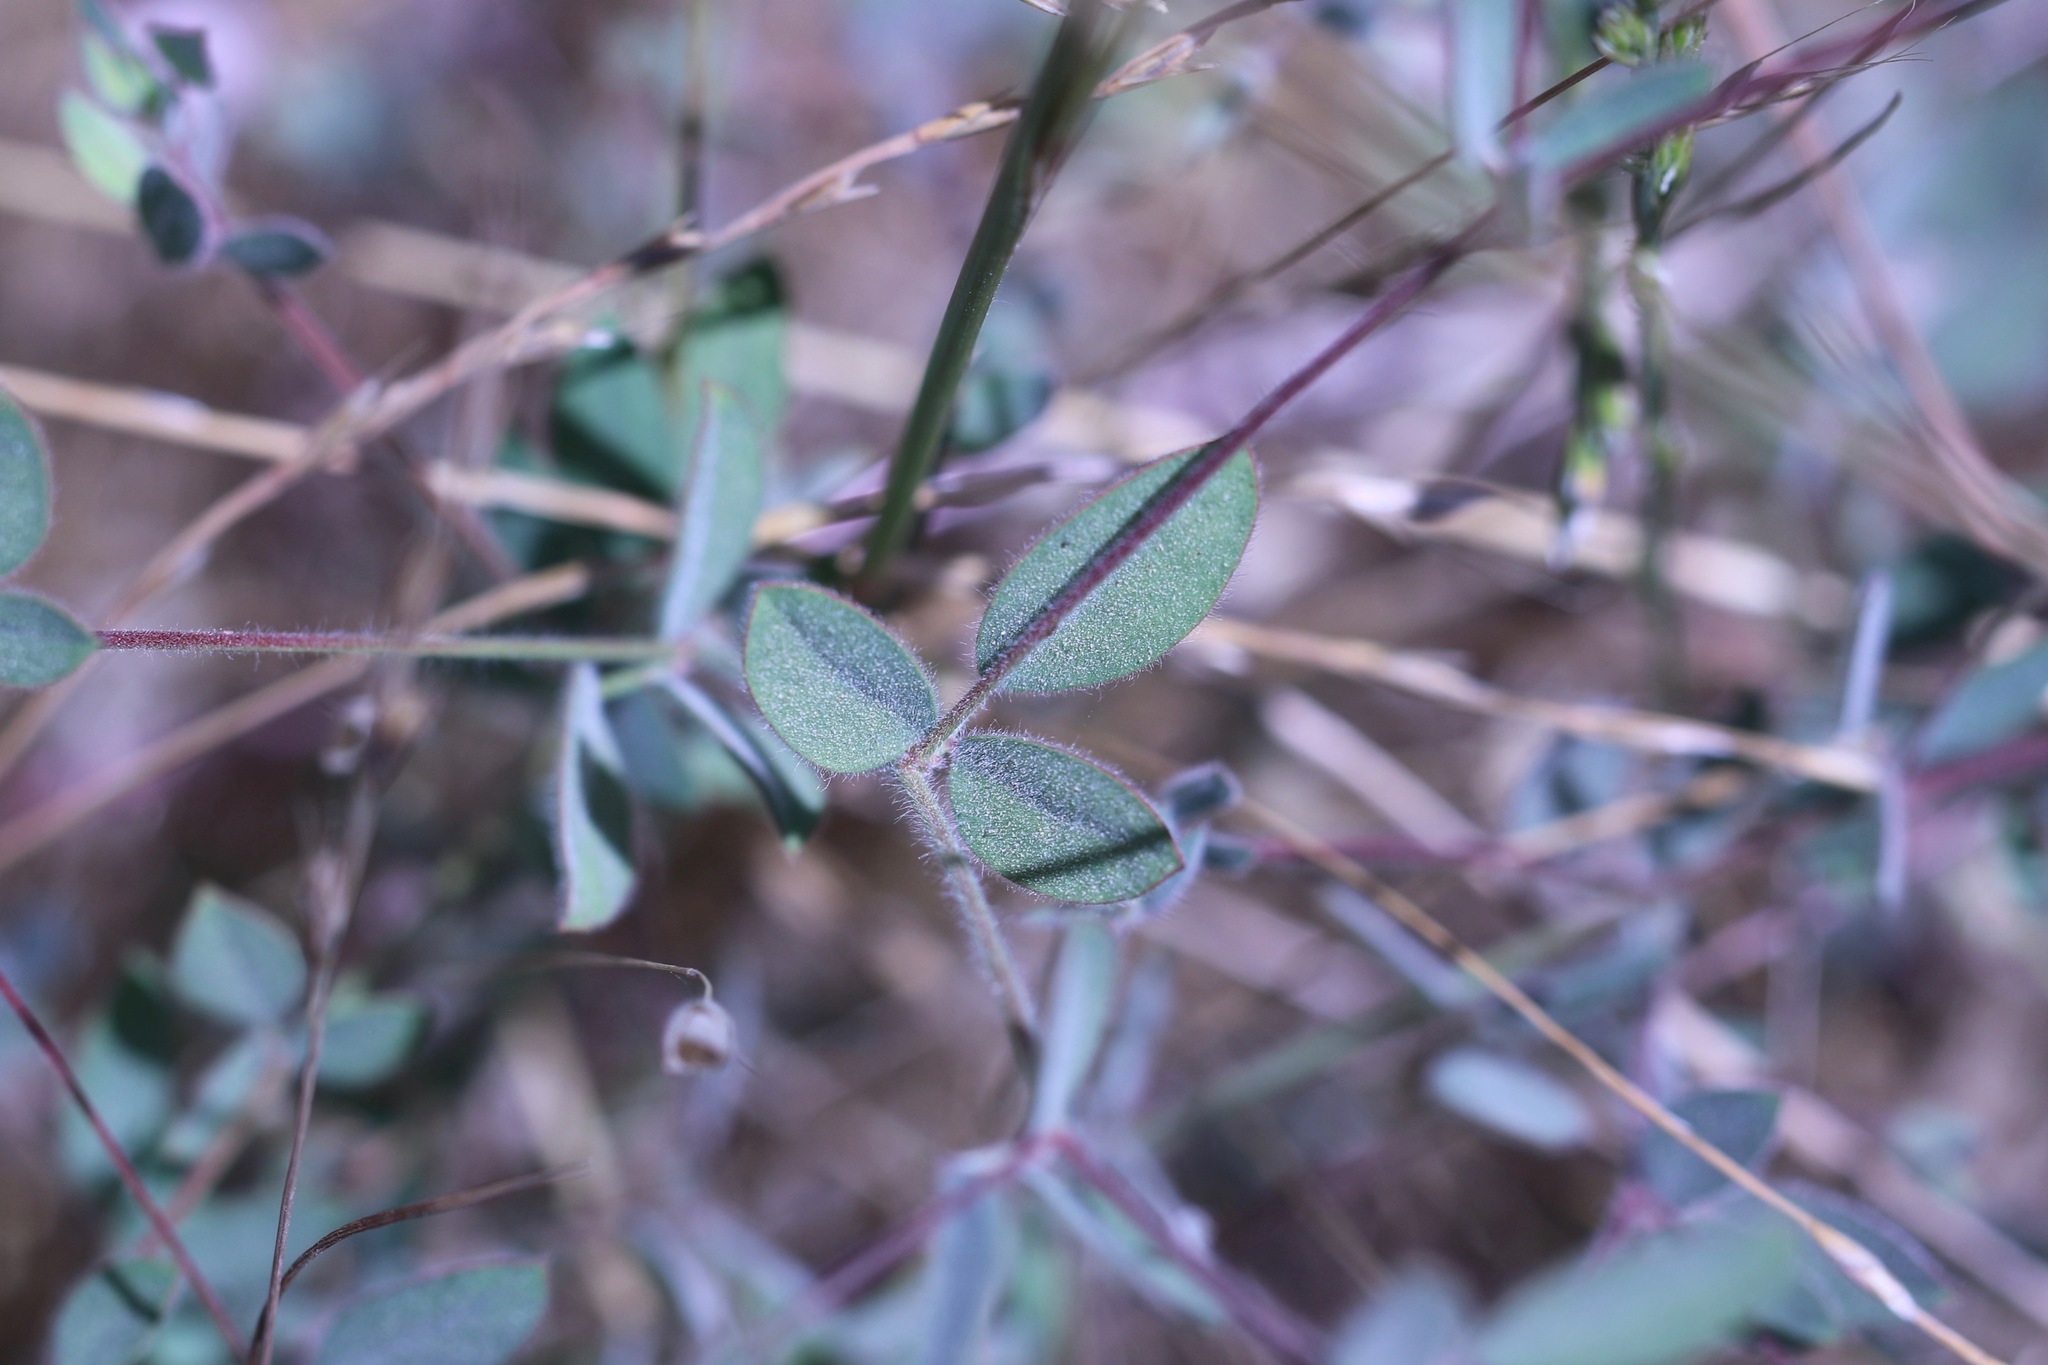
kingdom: Plantae
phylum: Tracheophyta
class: Magnoliopsida
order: Fabales
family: Fabaceae
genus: Acmispon
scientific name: Acmispon americanus
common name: American bird's-foot trefoil
